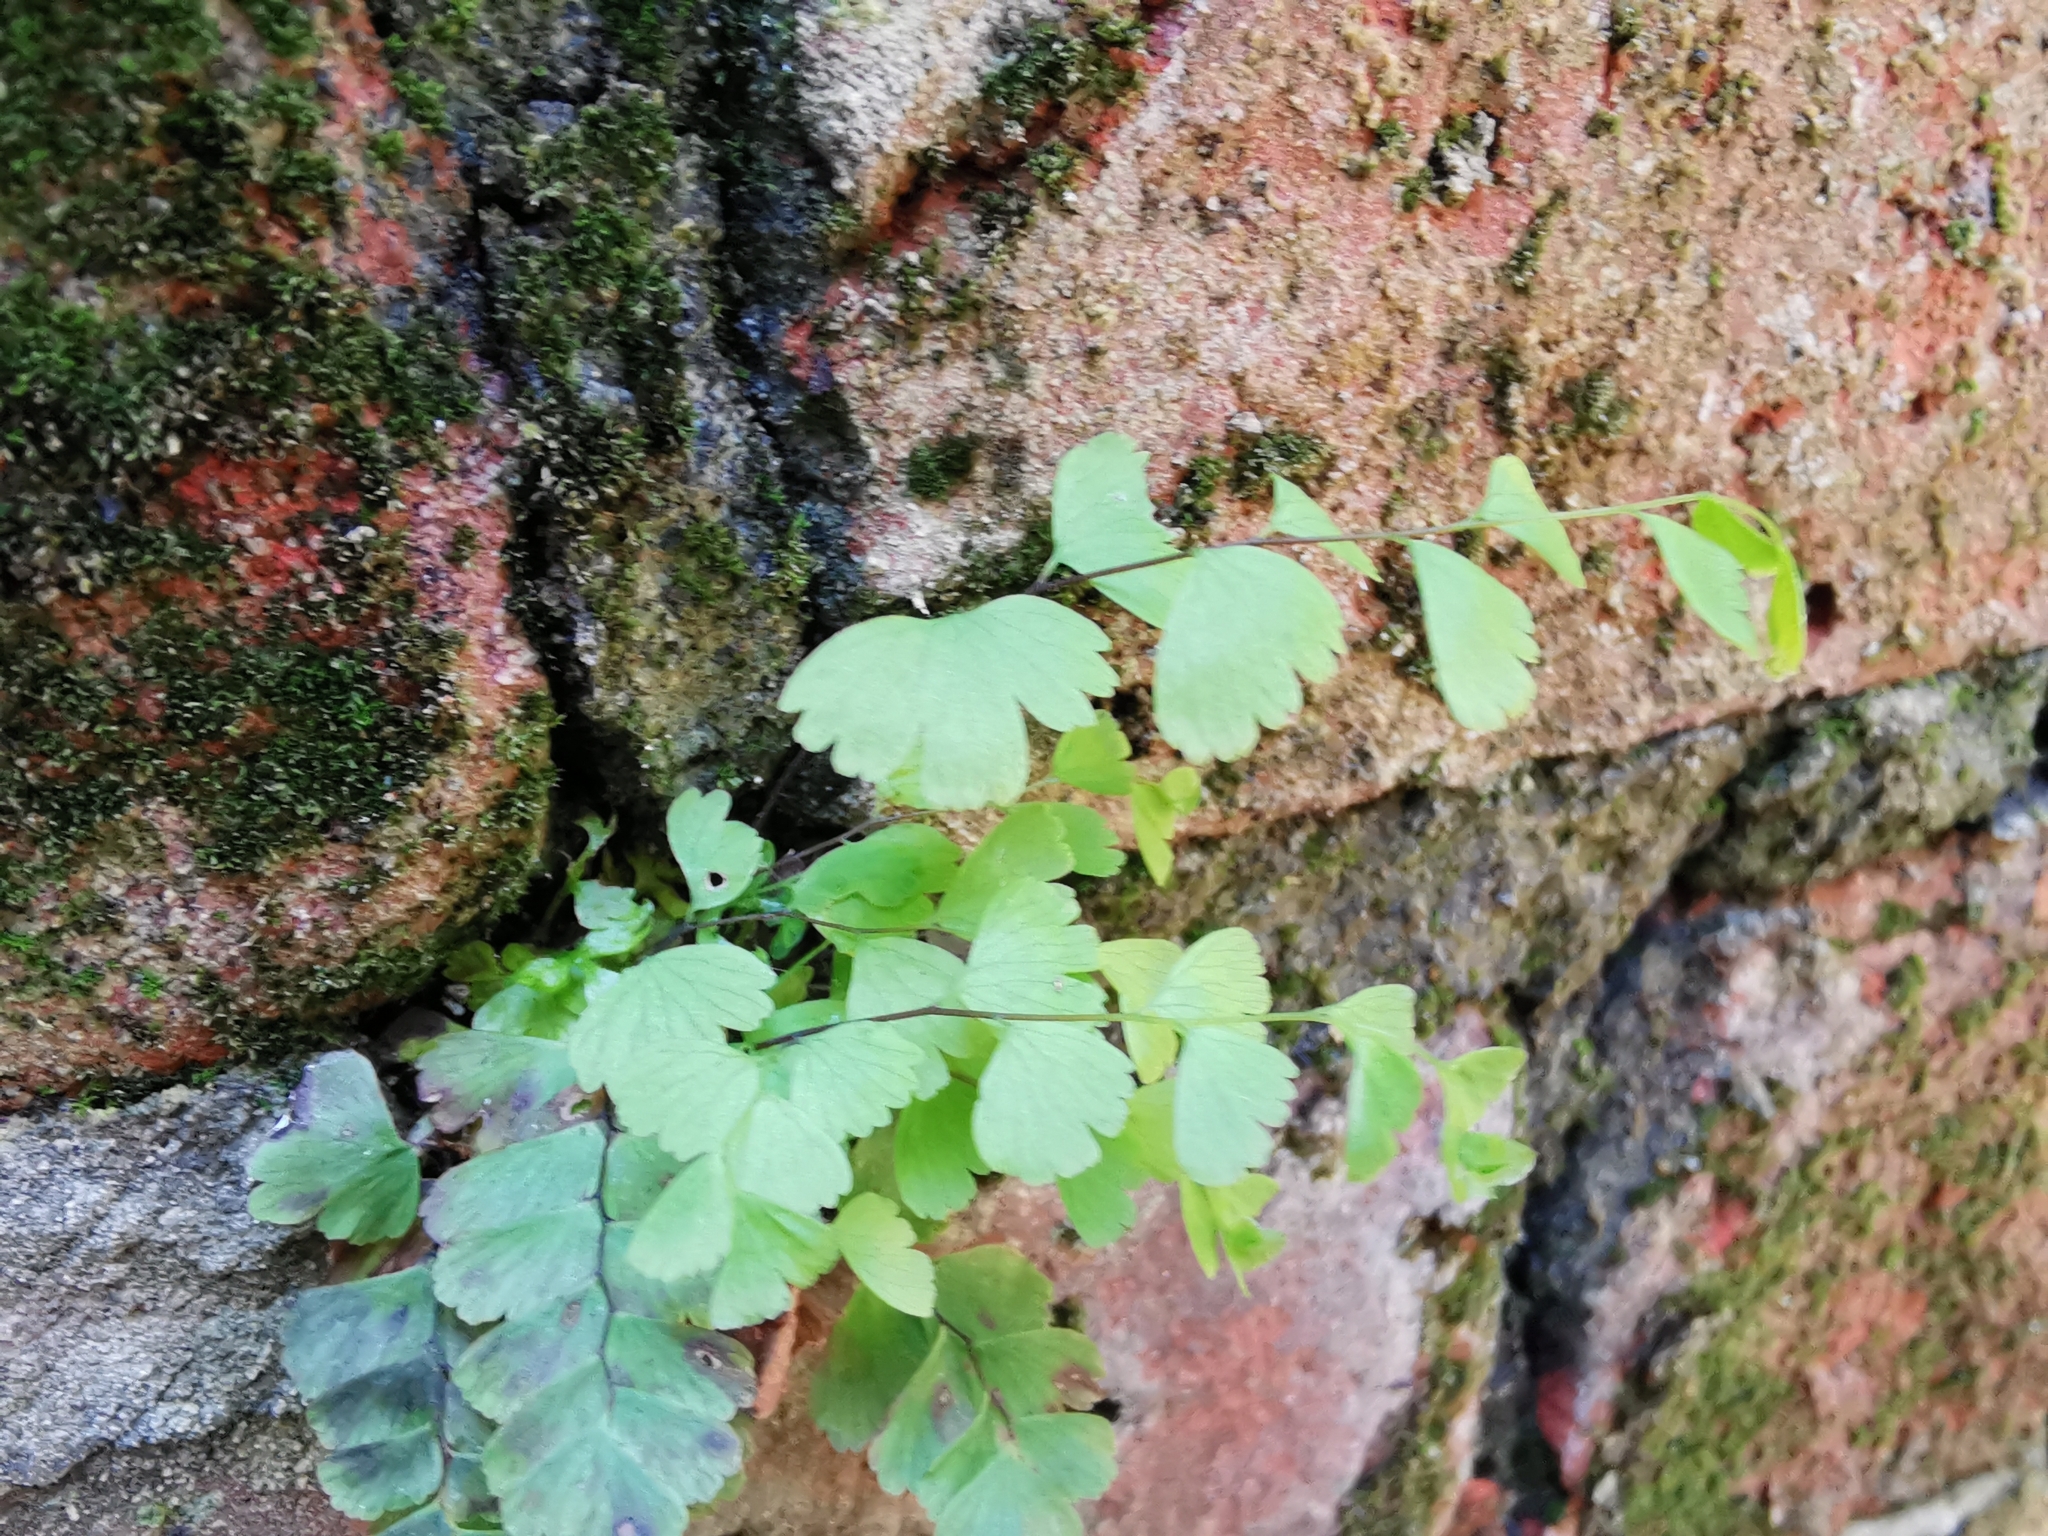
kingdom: Plantae
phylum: Tracheophyta
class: Polypodiopsida
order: Polypodiales
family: Pteridaceae
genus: Adiantum
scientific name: Adiantum capillus-veneris
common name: Maidenhair fern
